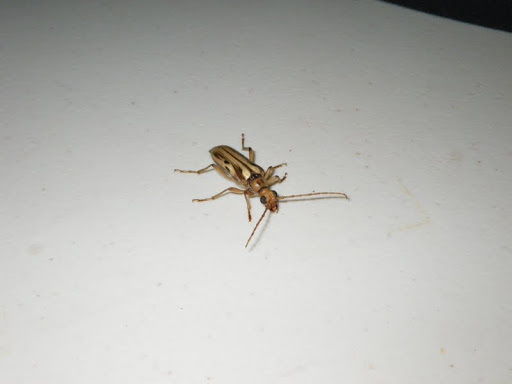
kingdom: Animalia
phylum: Arthropoda
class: Insecta
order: Coleoptera
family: Cerambycidae
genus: Ortholeptura
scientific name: Ortholeptura valida
